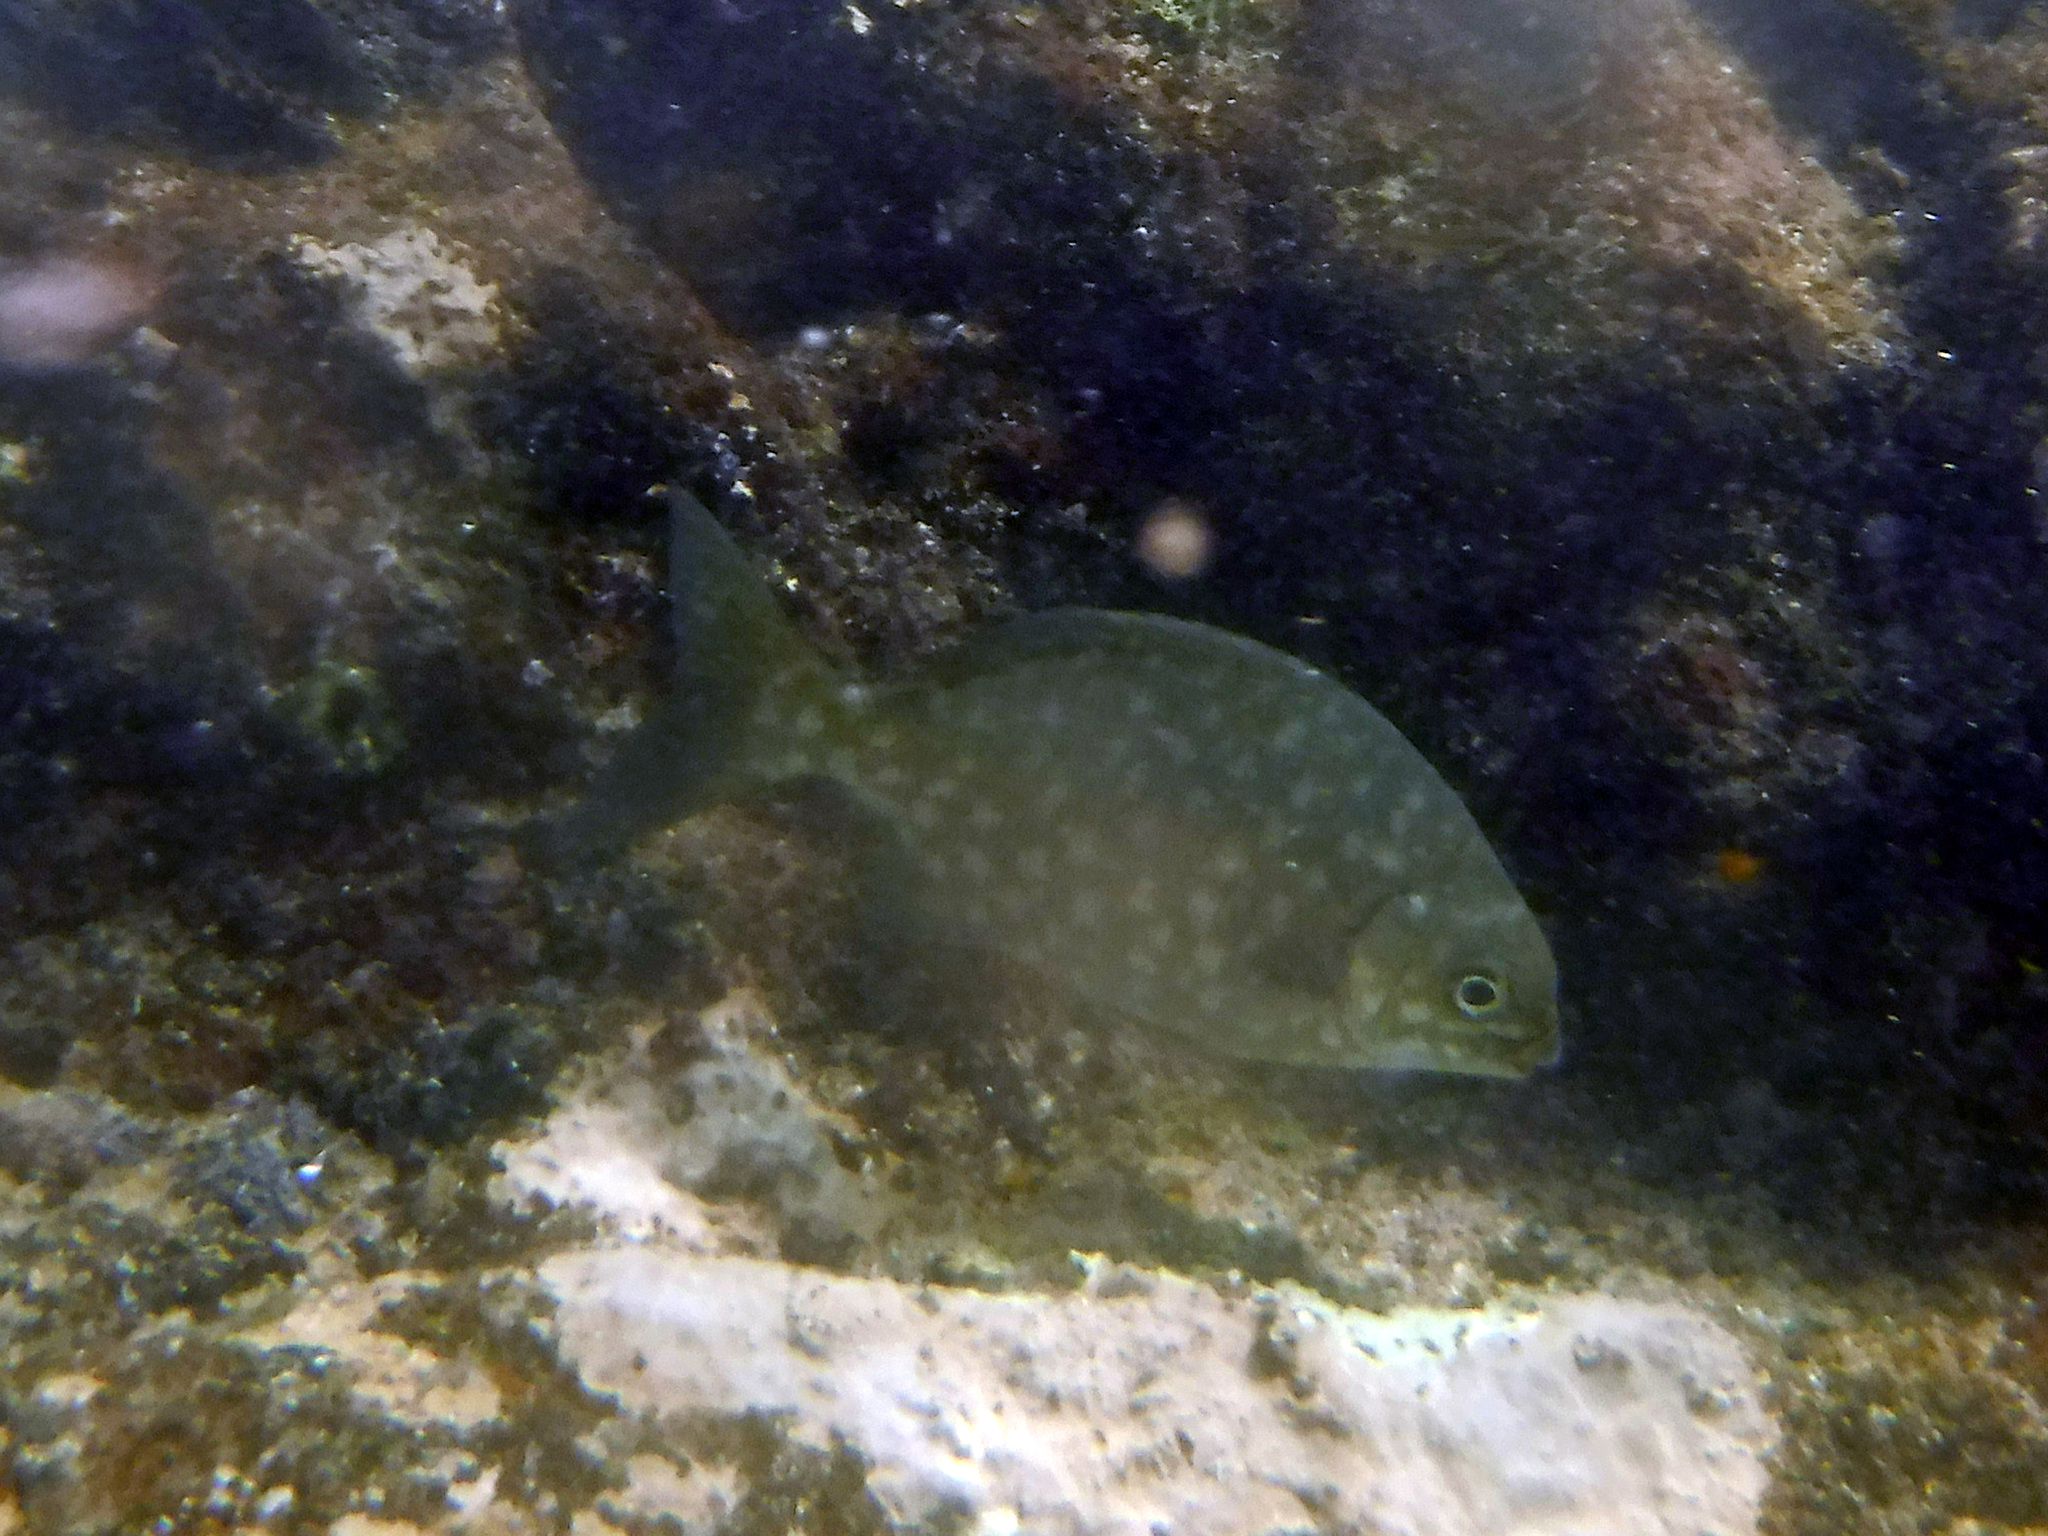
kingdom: Animalia
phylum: Chordata
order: Perciformes
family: Kyphosidae
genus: Kyphosus
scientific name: Kyphosus elegans
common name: Cortez chub
